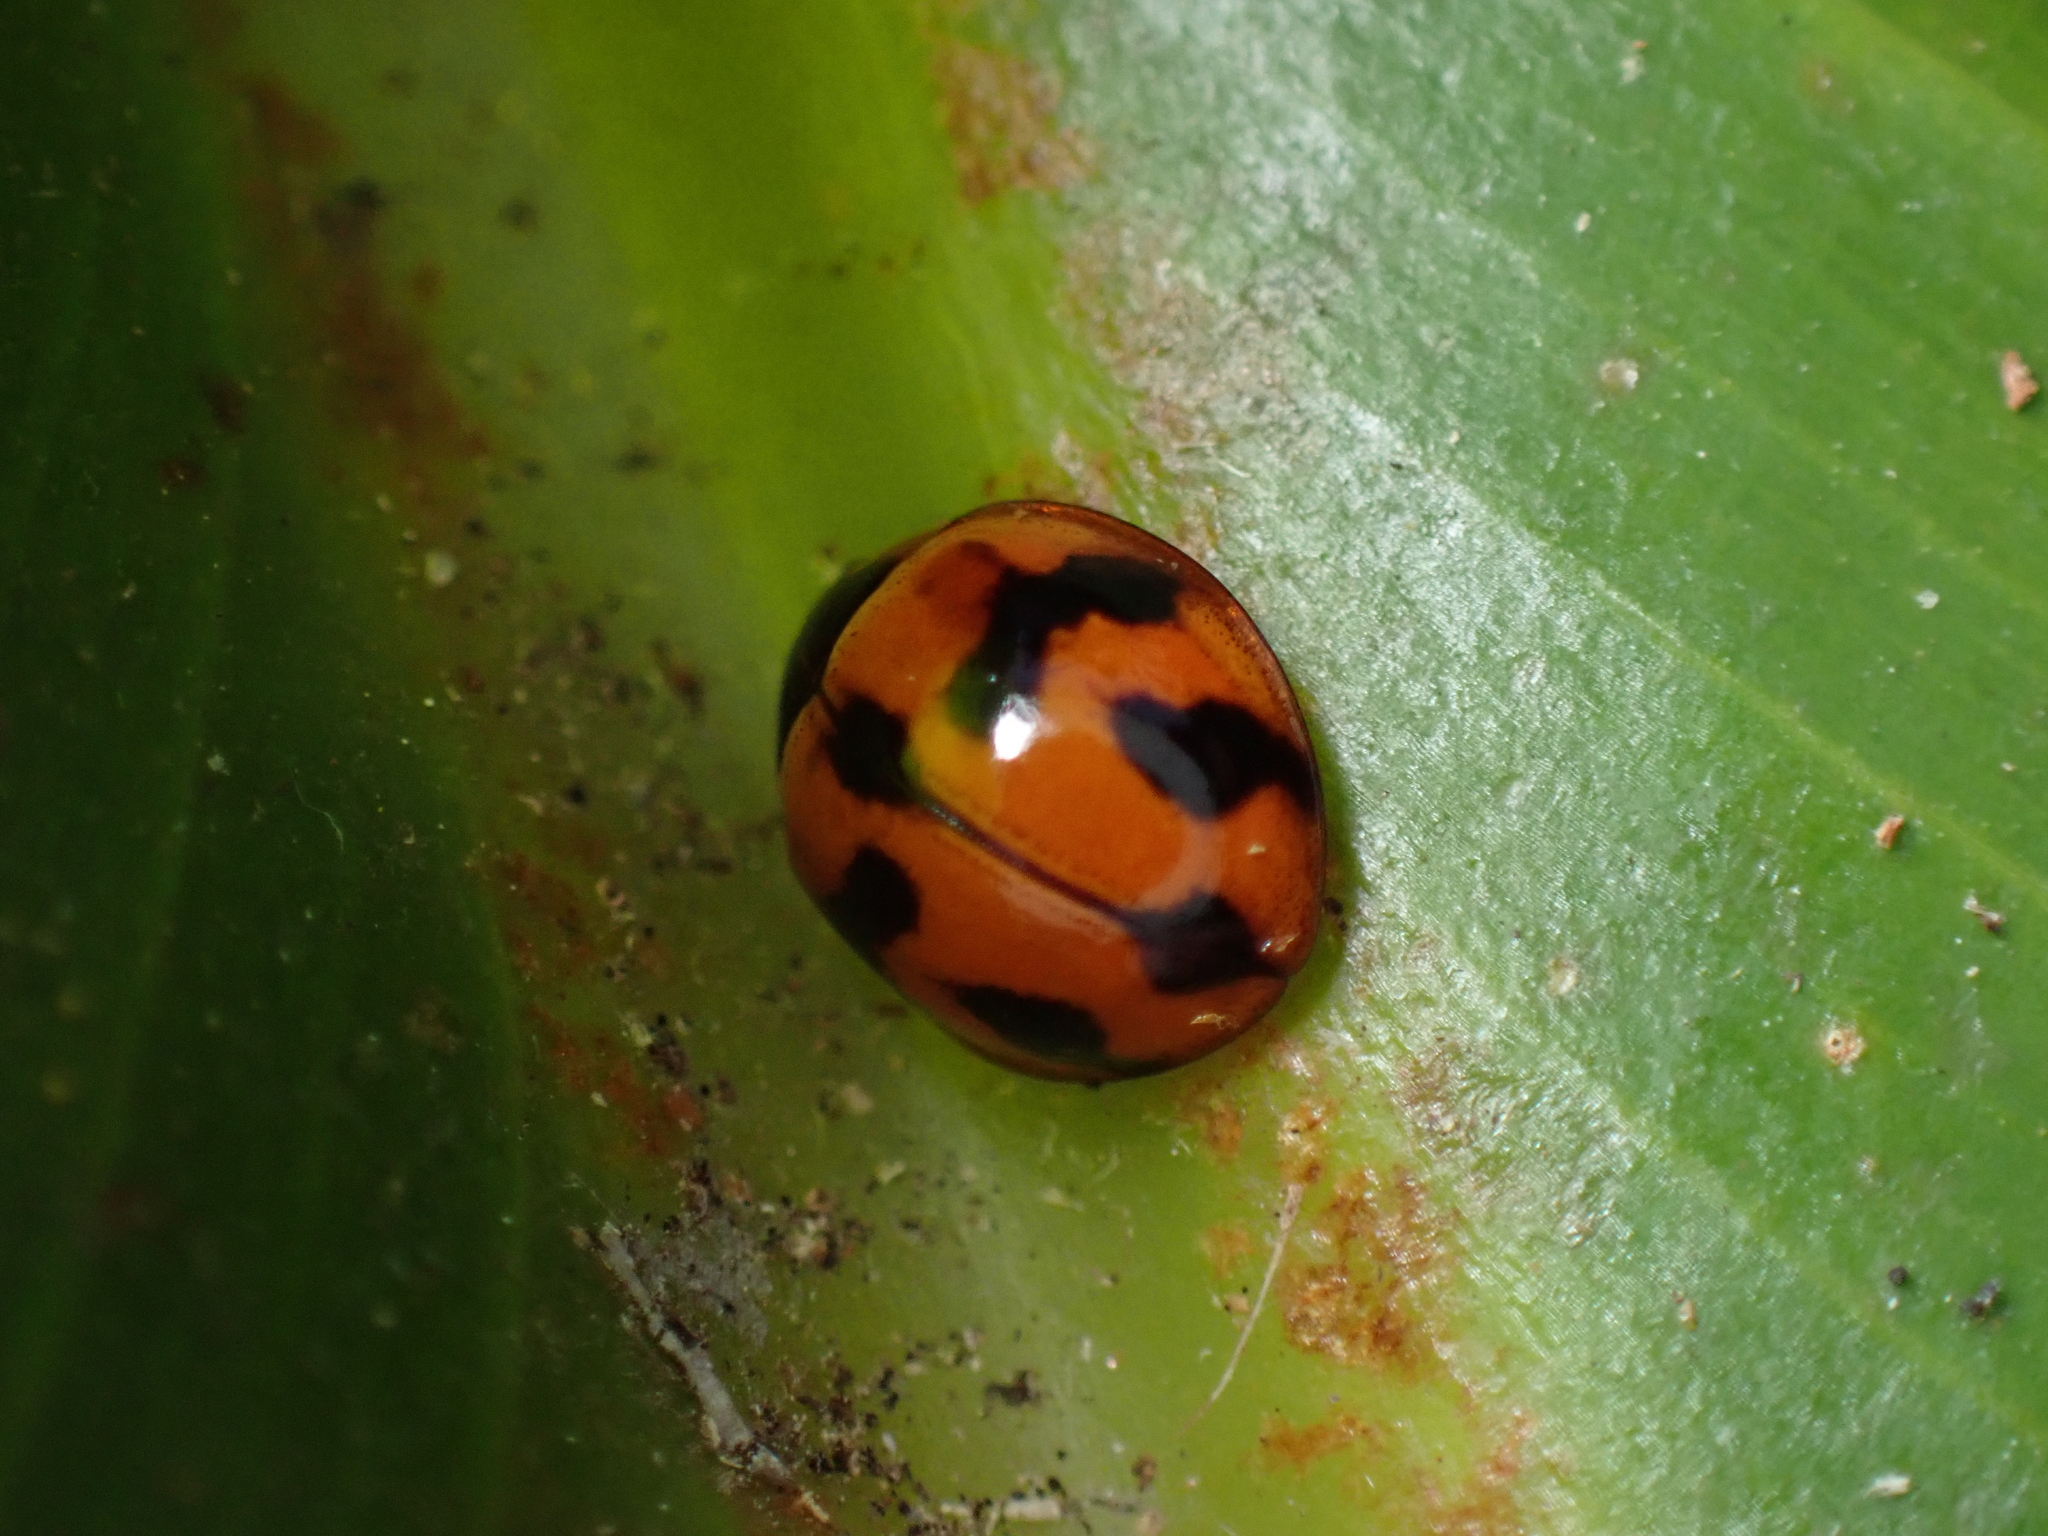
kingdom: Animalia
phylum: Arthropoda
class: Insecta
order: Coleoptera
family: Coccinellidae
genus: Coelophora
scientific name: Coelophora inaequalis
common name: Common australian lady beetle
